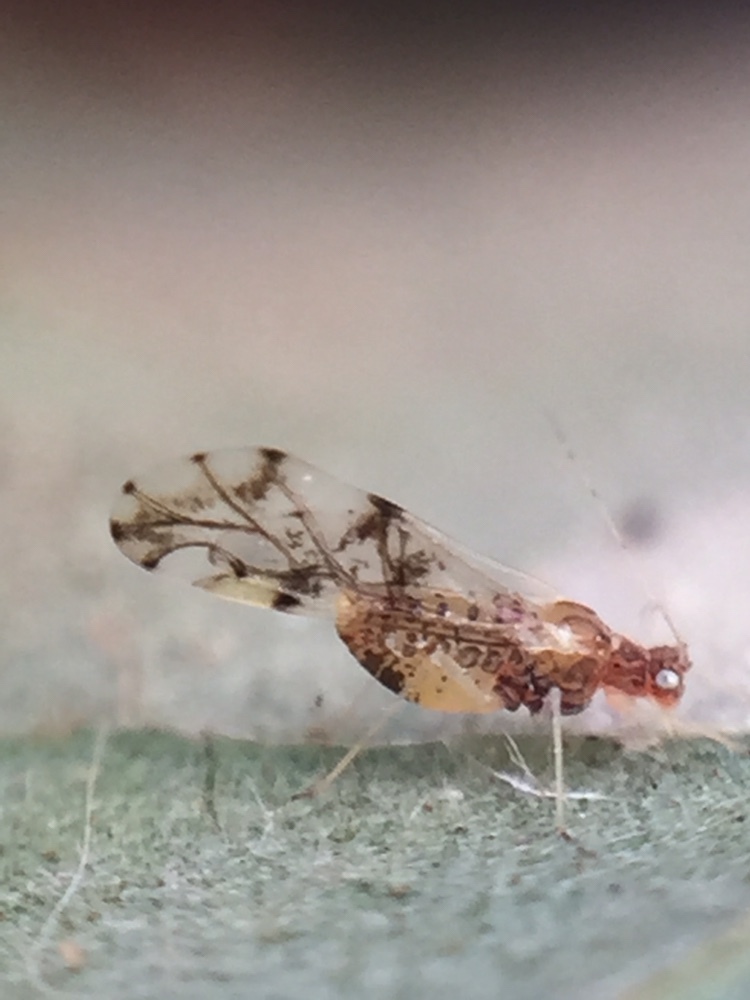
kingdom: Animalia
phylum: Arthropoda
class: Insecta
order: Hemiptera
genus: Neomyzocallis
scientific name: Neomyzocallis
